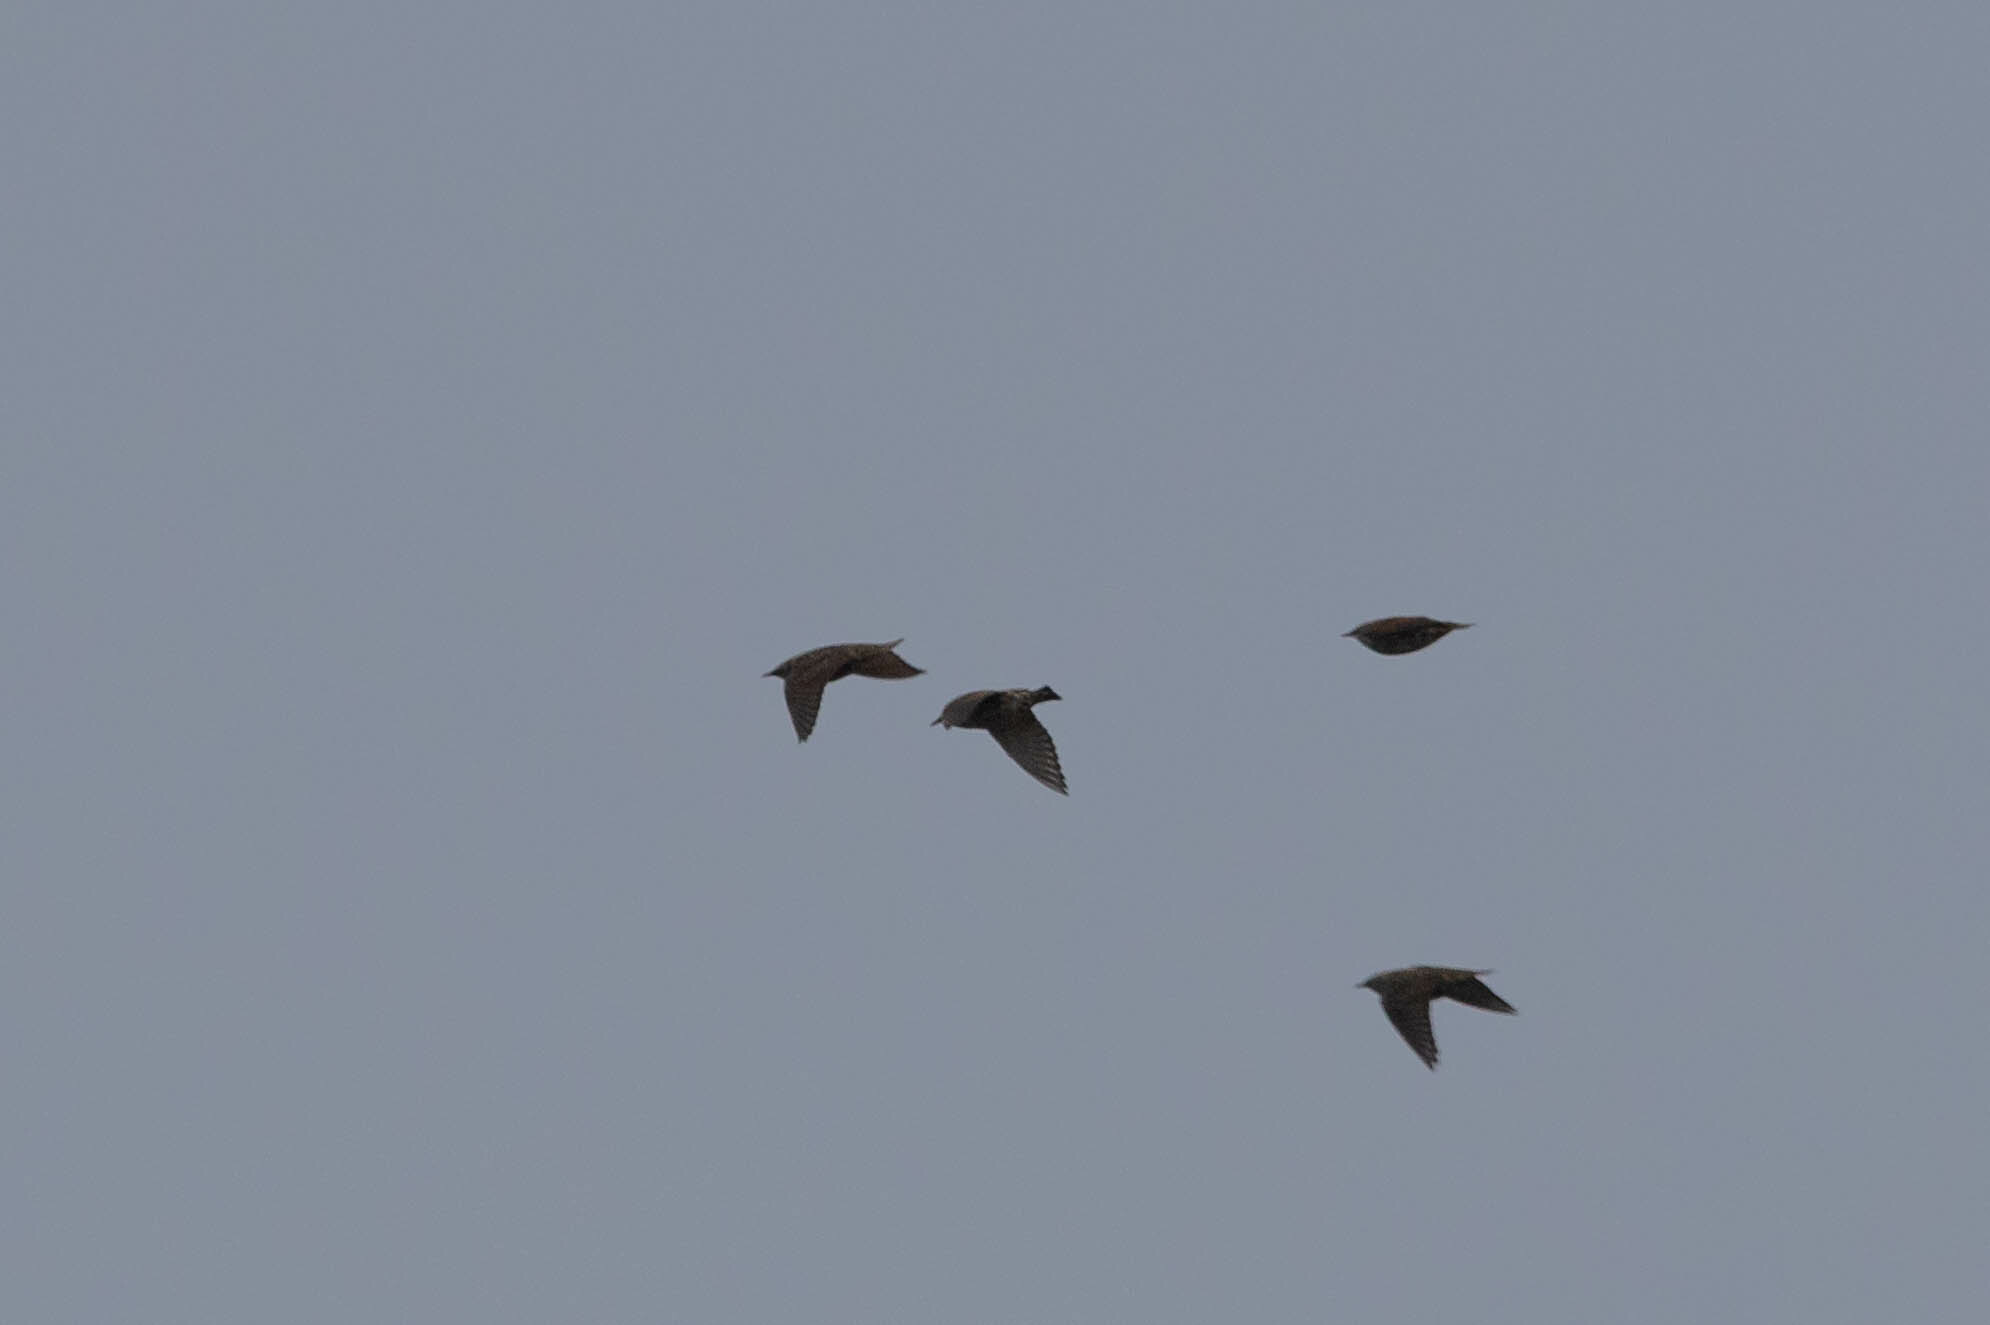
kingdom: Animalia
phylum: Chordata
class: Aves
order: Passeriformes
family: Sturnidae
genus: Sturnus
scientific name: Sturnus vulgaris
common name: Common starling
